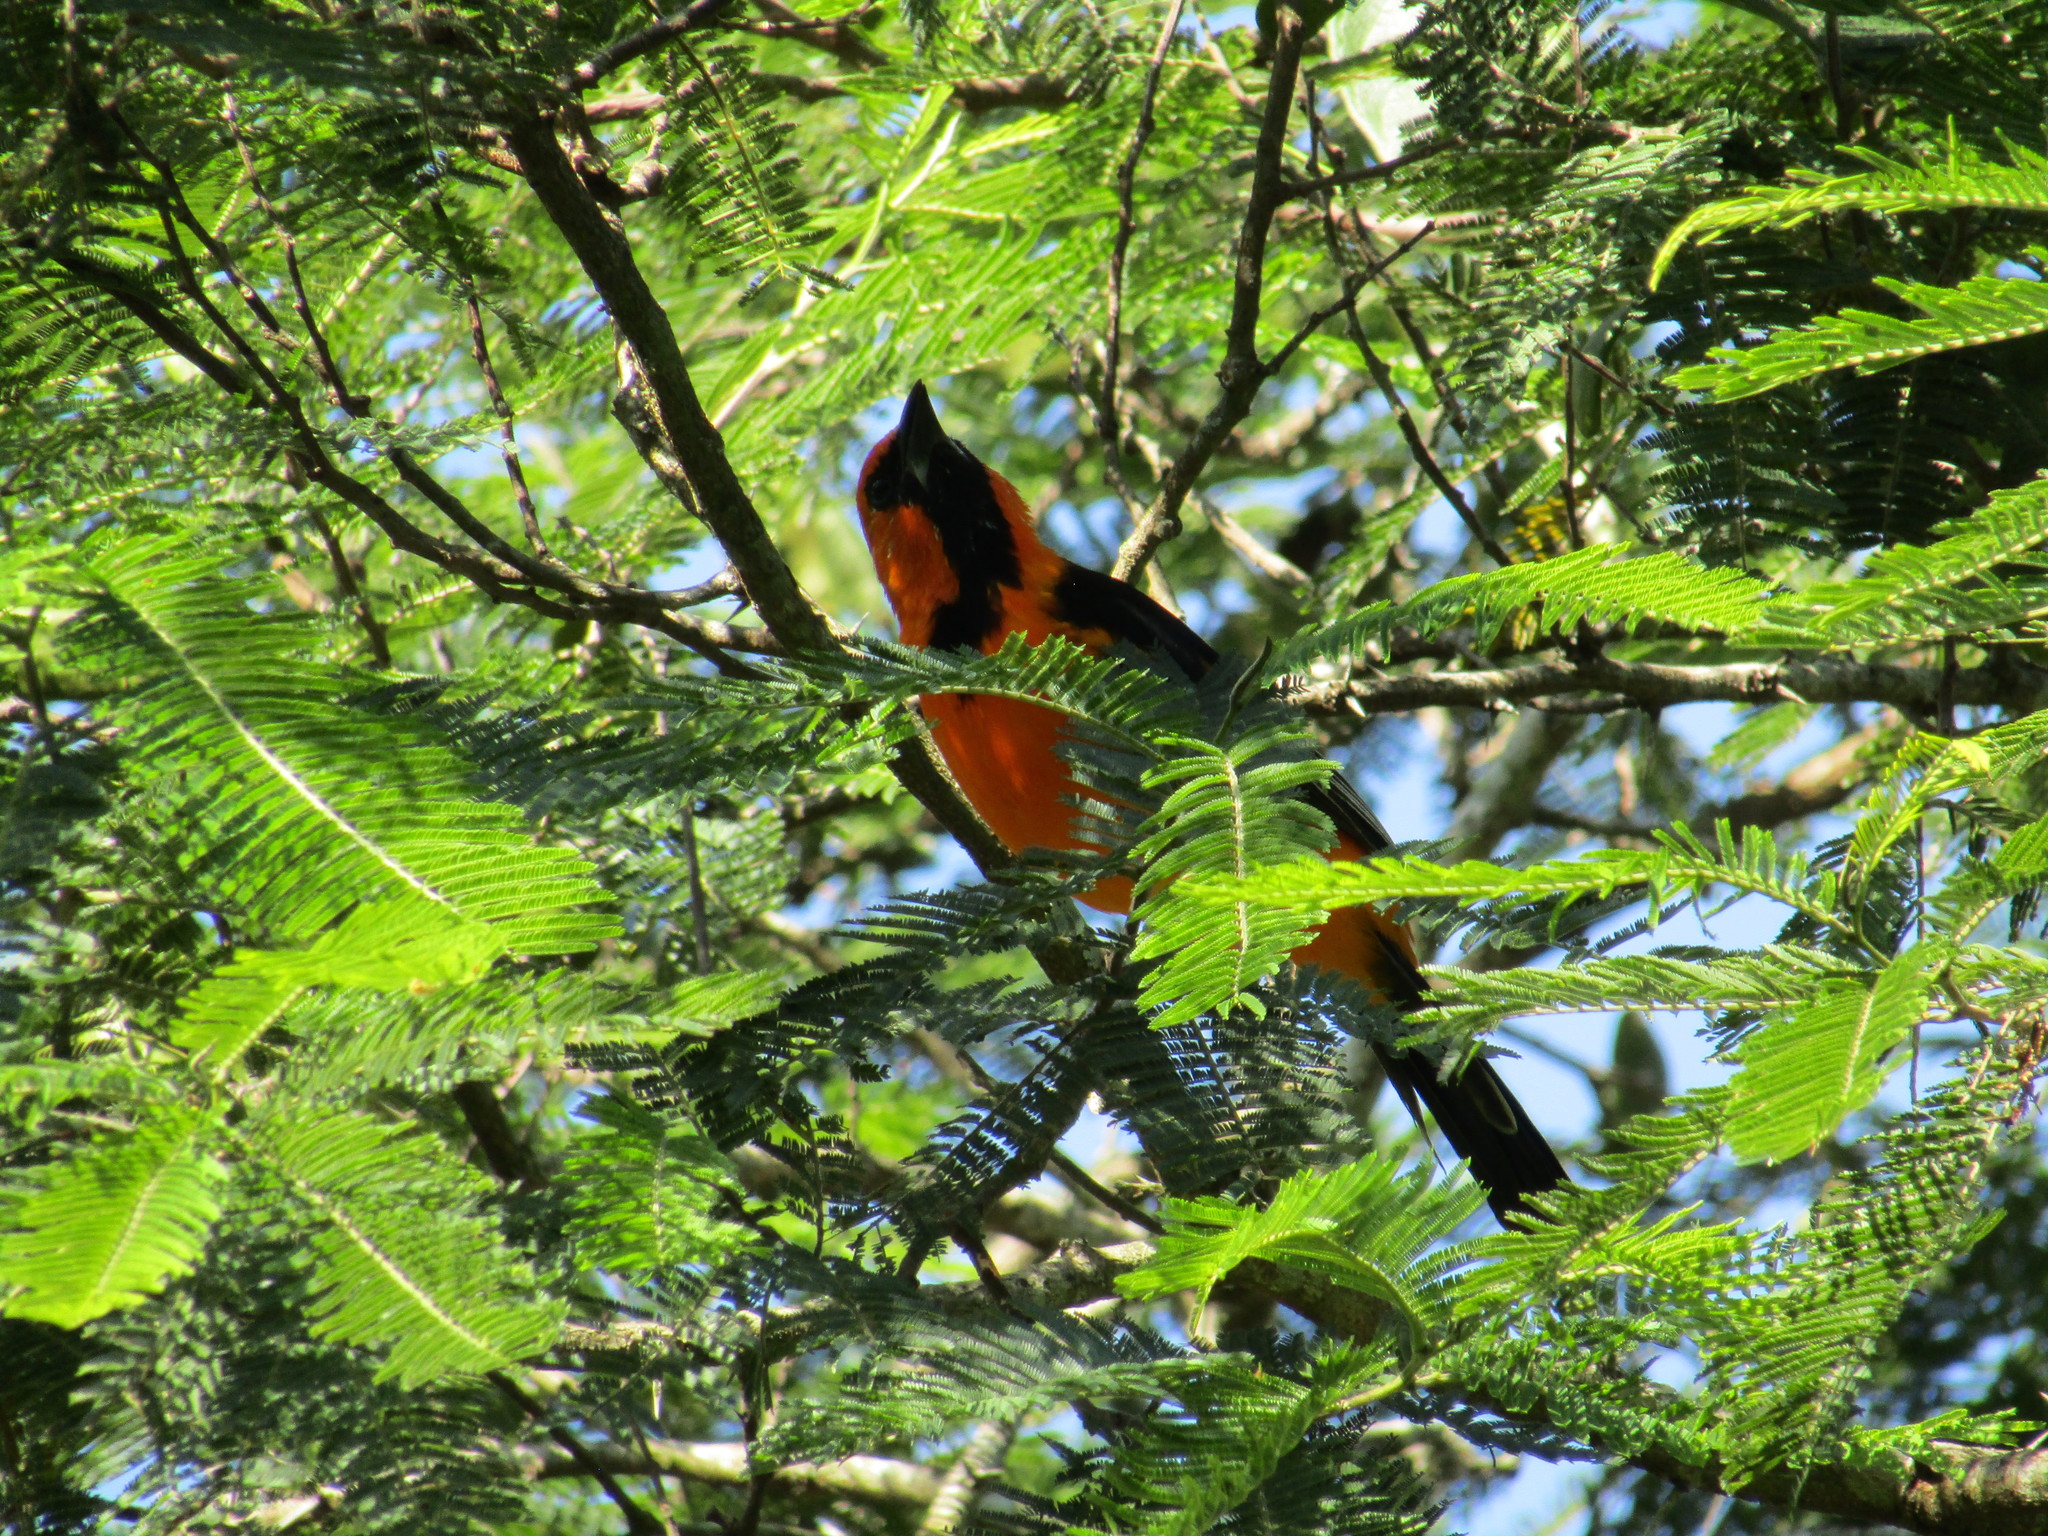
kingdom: Animalia
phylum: Chordata
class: Aves
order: Passeriformes
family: Icteridae
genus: Icterus
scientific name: Icterus gularis
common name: Altamira oriole
